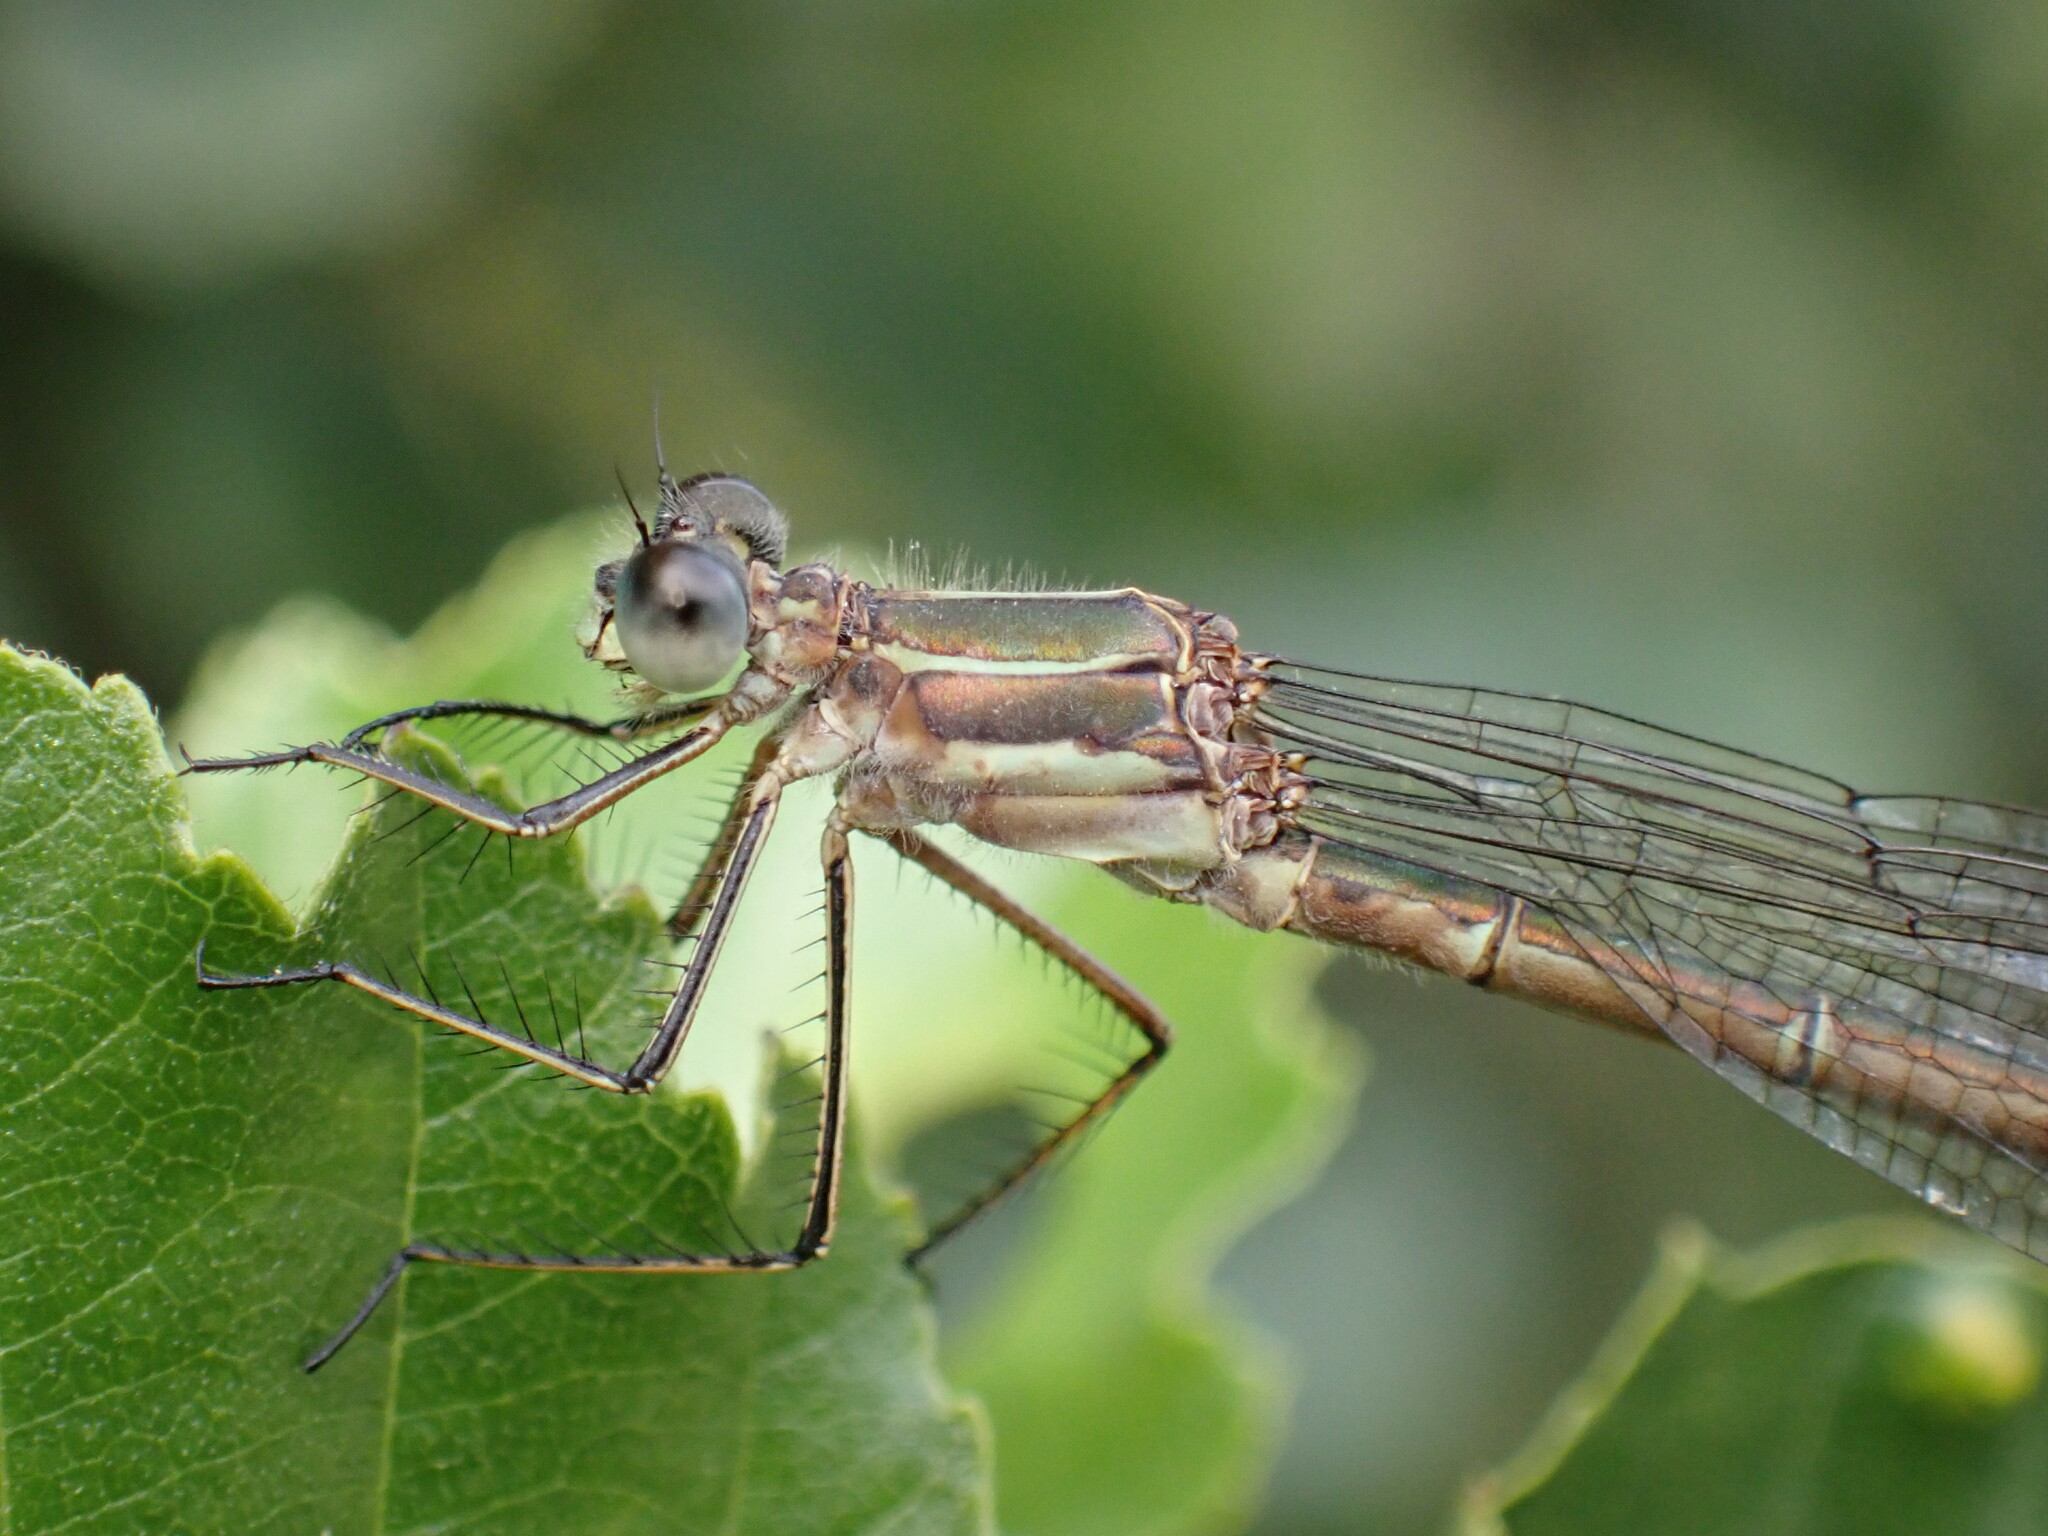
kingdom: Animalia
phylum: Arthropoda
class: Insecta
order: Odonata
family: Lestidae
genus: Lestes
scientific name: Lestes sponsa
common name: Common spreadwing
